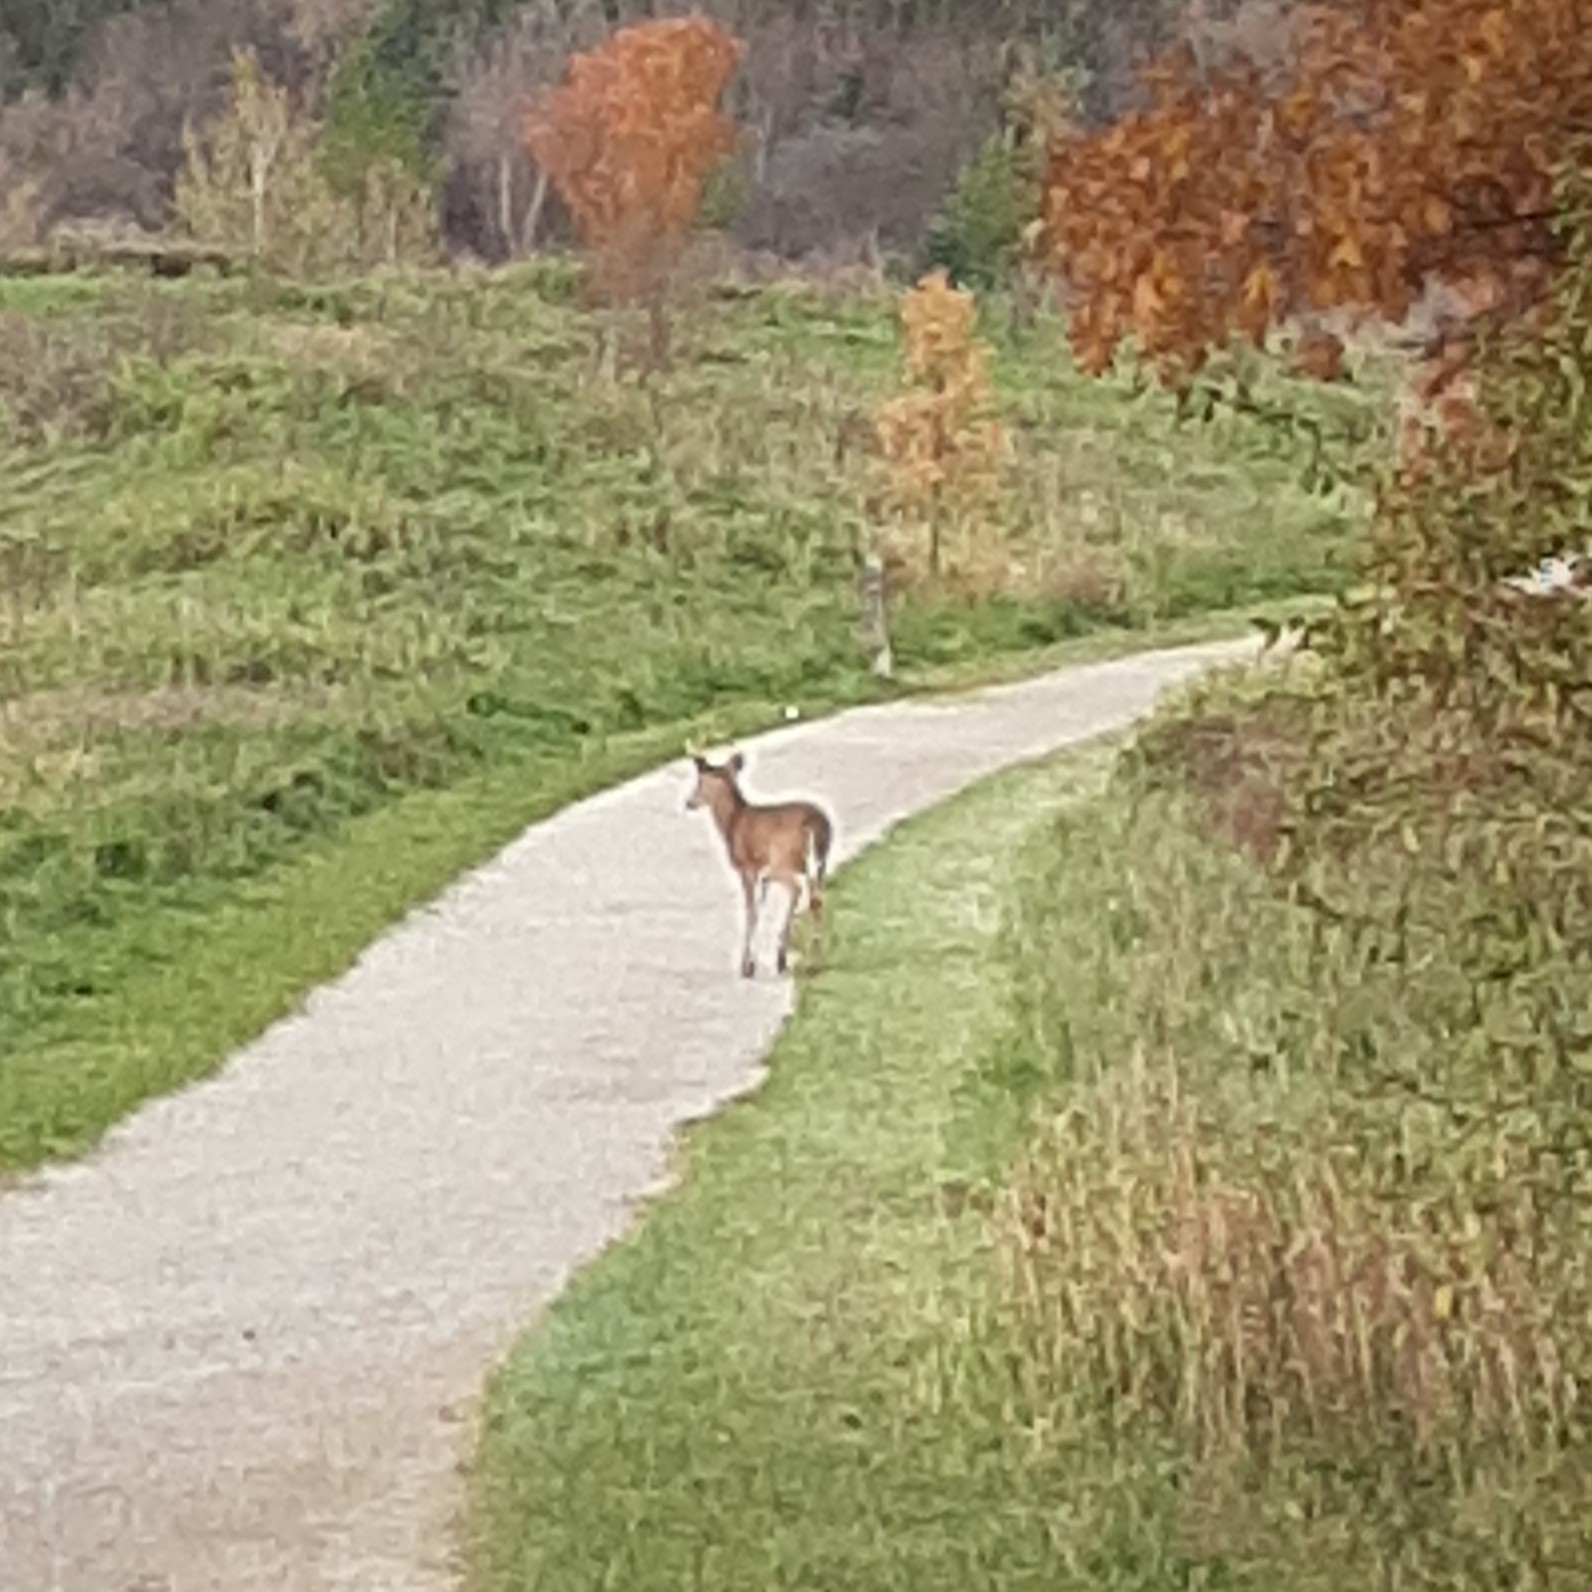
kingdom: Animalia
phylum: Chordata
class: Mammalia
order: Artiodactyla
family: Cervidae
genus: Odocoileus
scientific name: Odocoileus virginianus
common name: White-tailed deer
